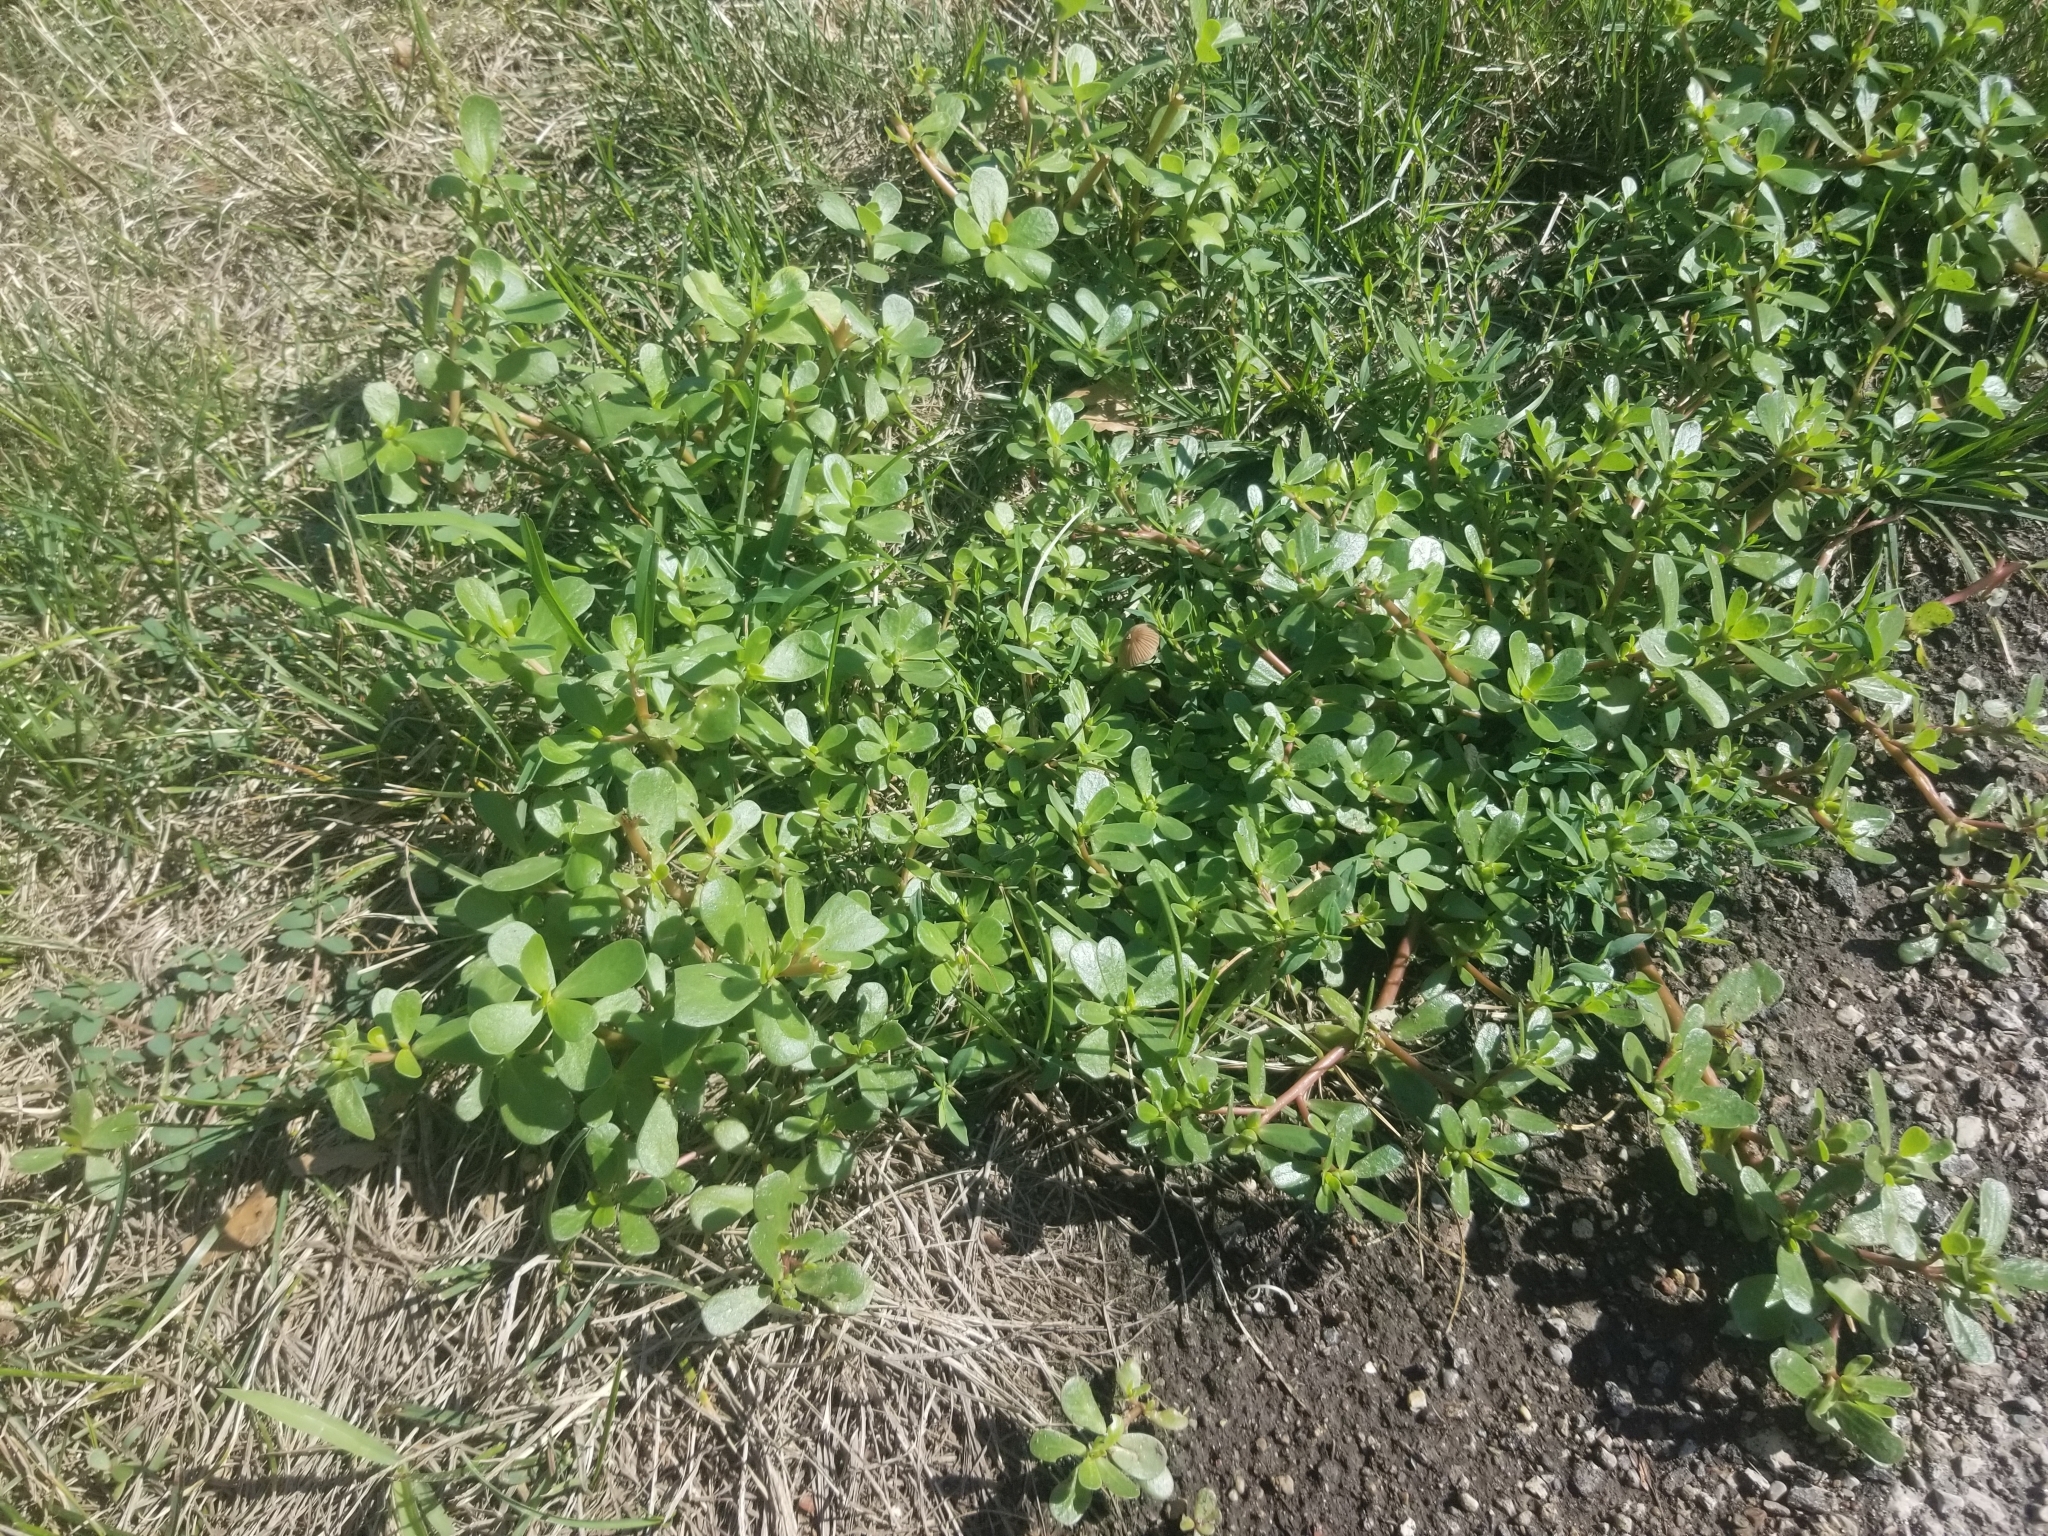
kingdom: Plantae
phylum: Tracheophyta
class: Magnoliopsida
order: Caryophyllales
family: Portulacaceae
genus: Portulaca
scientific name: Portulaca oleracea
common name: Common purslane
